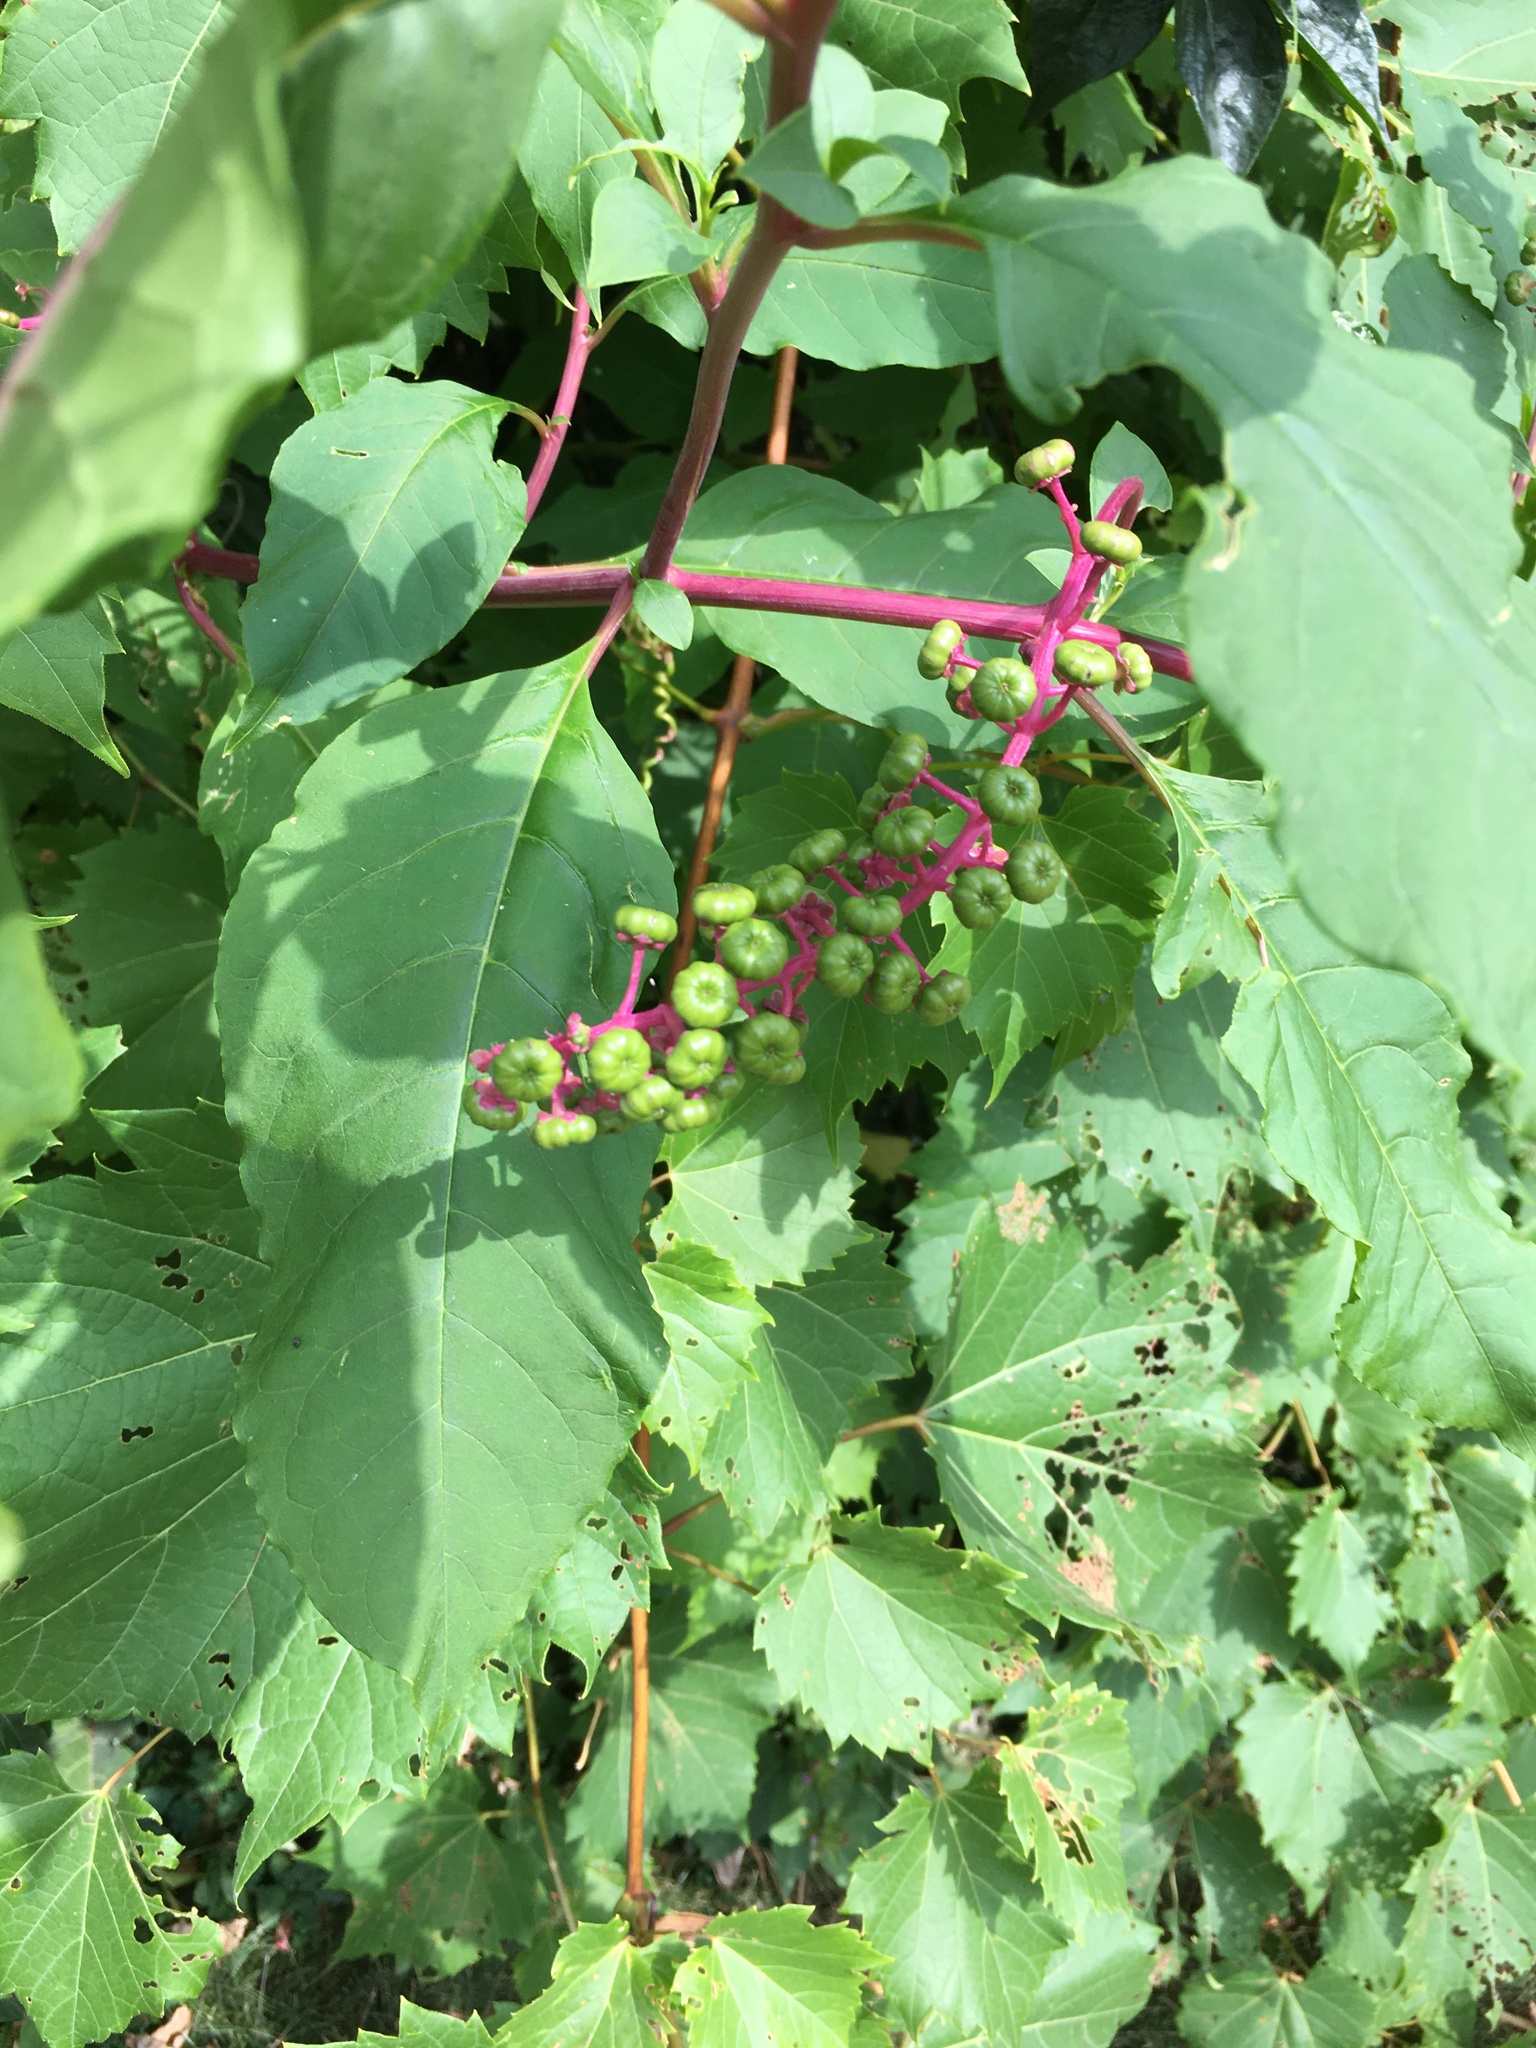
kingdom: Plantae
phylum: Tracheophyta
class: Magnoliopsida
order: Caryophyllales
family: Phytolaccaceae
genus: Phytolacca
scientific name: Phytolacca americana
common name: American pokeweed
